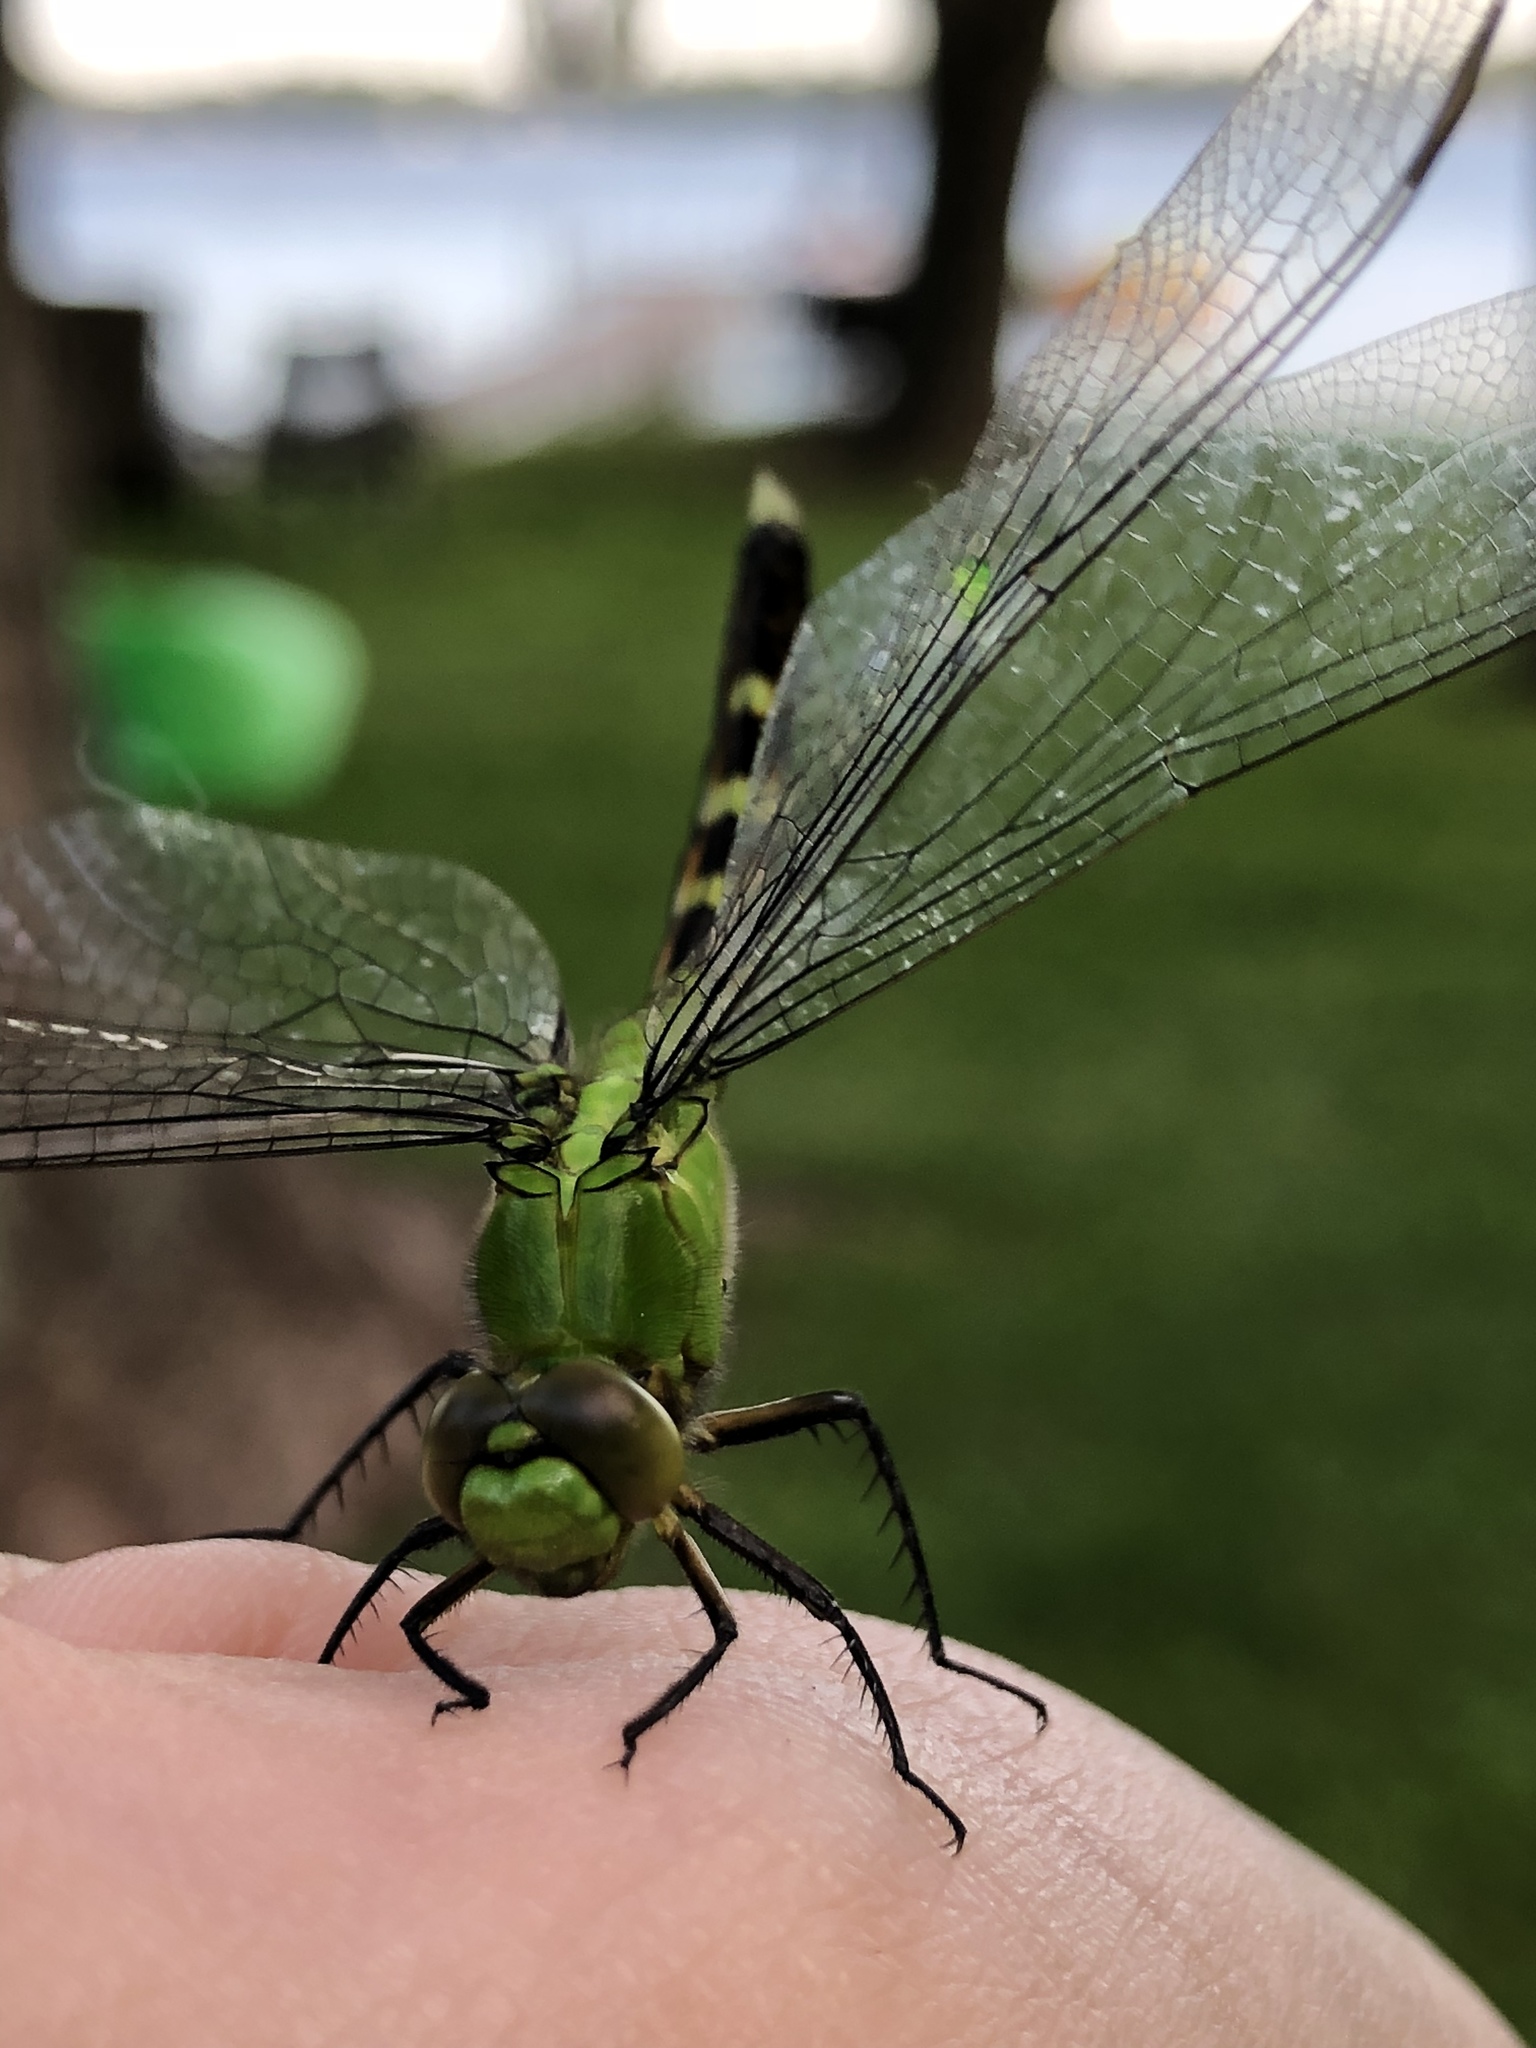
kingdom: Animalia
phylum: Arthropoda
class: Insecta
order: Odonata
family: Libellulidae
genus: Erythemis
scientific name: Erythemis simplicicollis
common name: Eastern pondhawk
